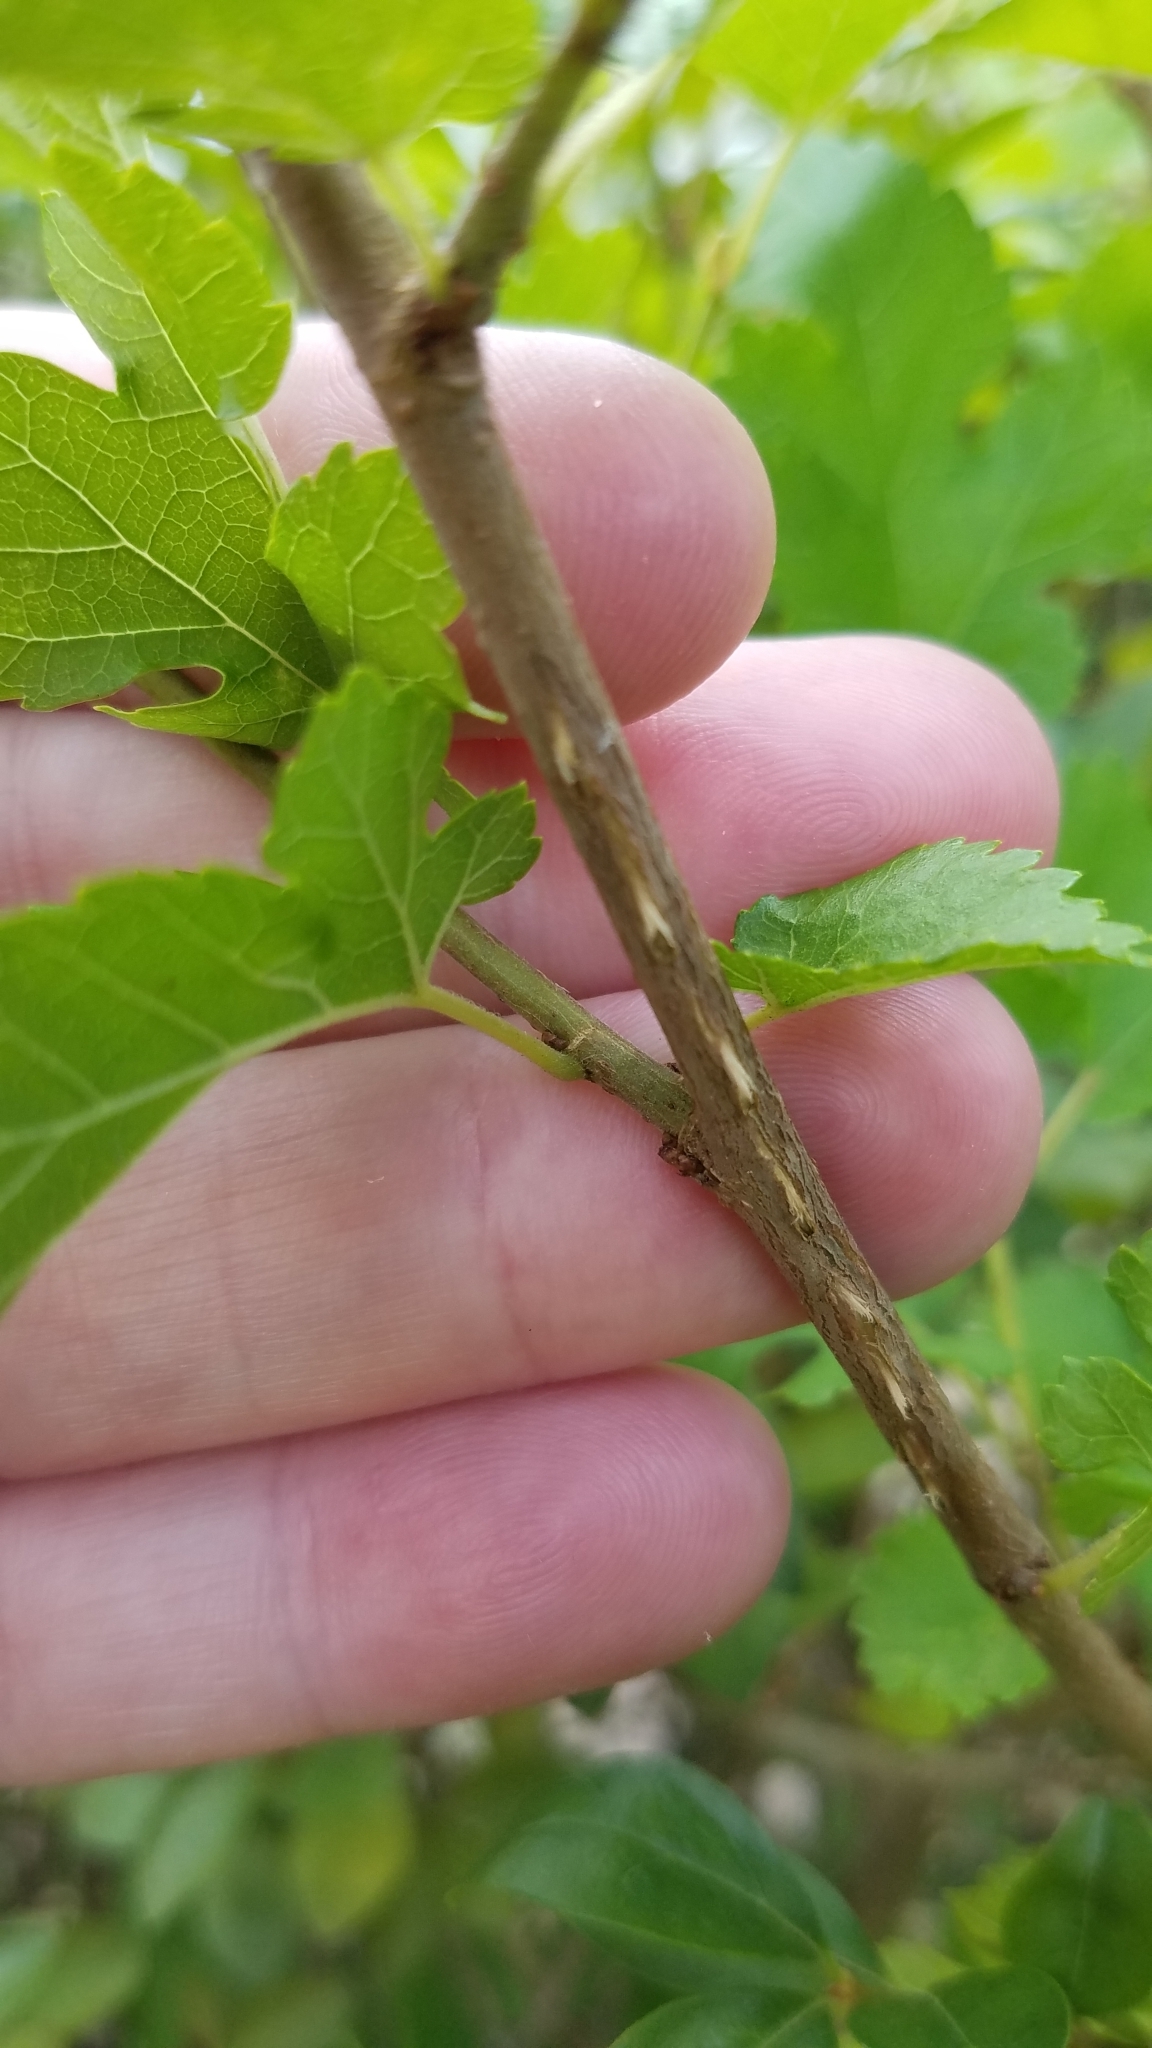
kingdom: Animalia
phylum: Arthropoda
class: Insecta
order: Hemiptera
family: Cicadidae
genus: Magicicada
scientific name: Magicicada
